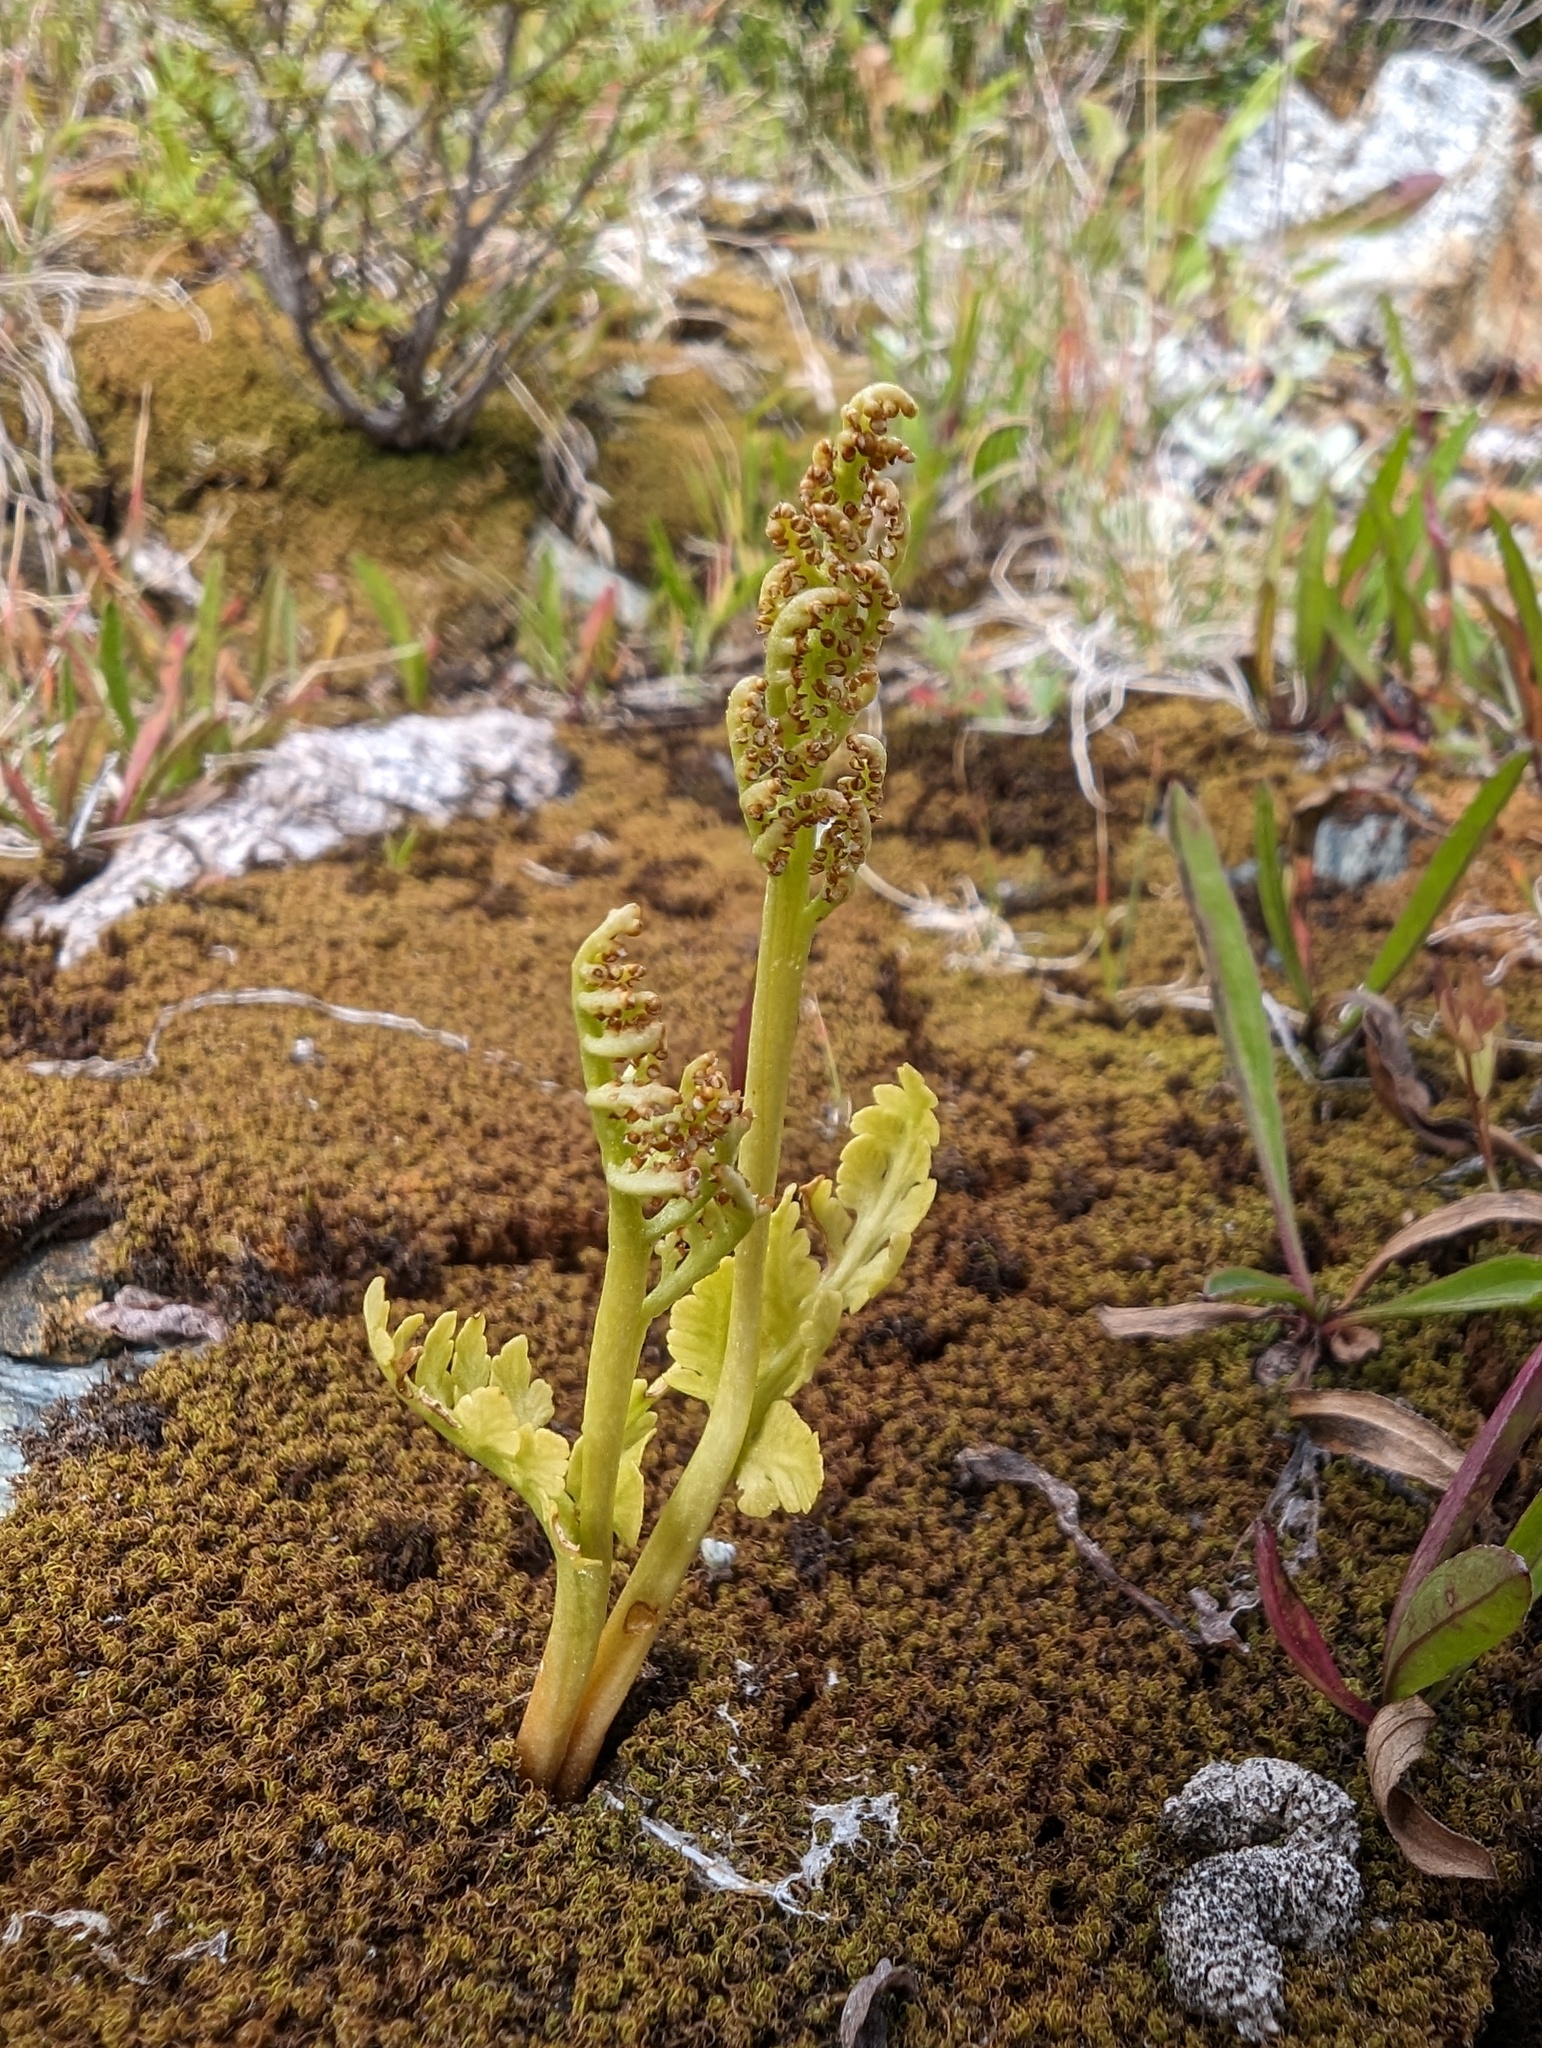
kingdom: Plantae
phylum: Tracheophyta
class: Polypodiopsida
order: Ophioglossales
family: Ophioglossaceae
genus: Botrychium
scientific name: Botrychium pinnatum
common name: Northwestern moonwort
